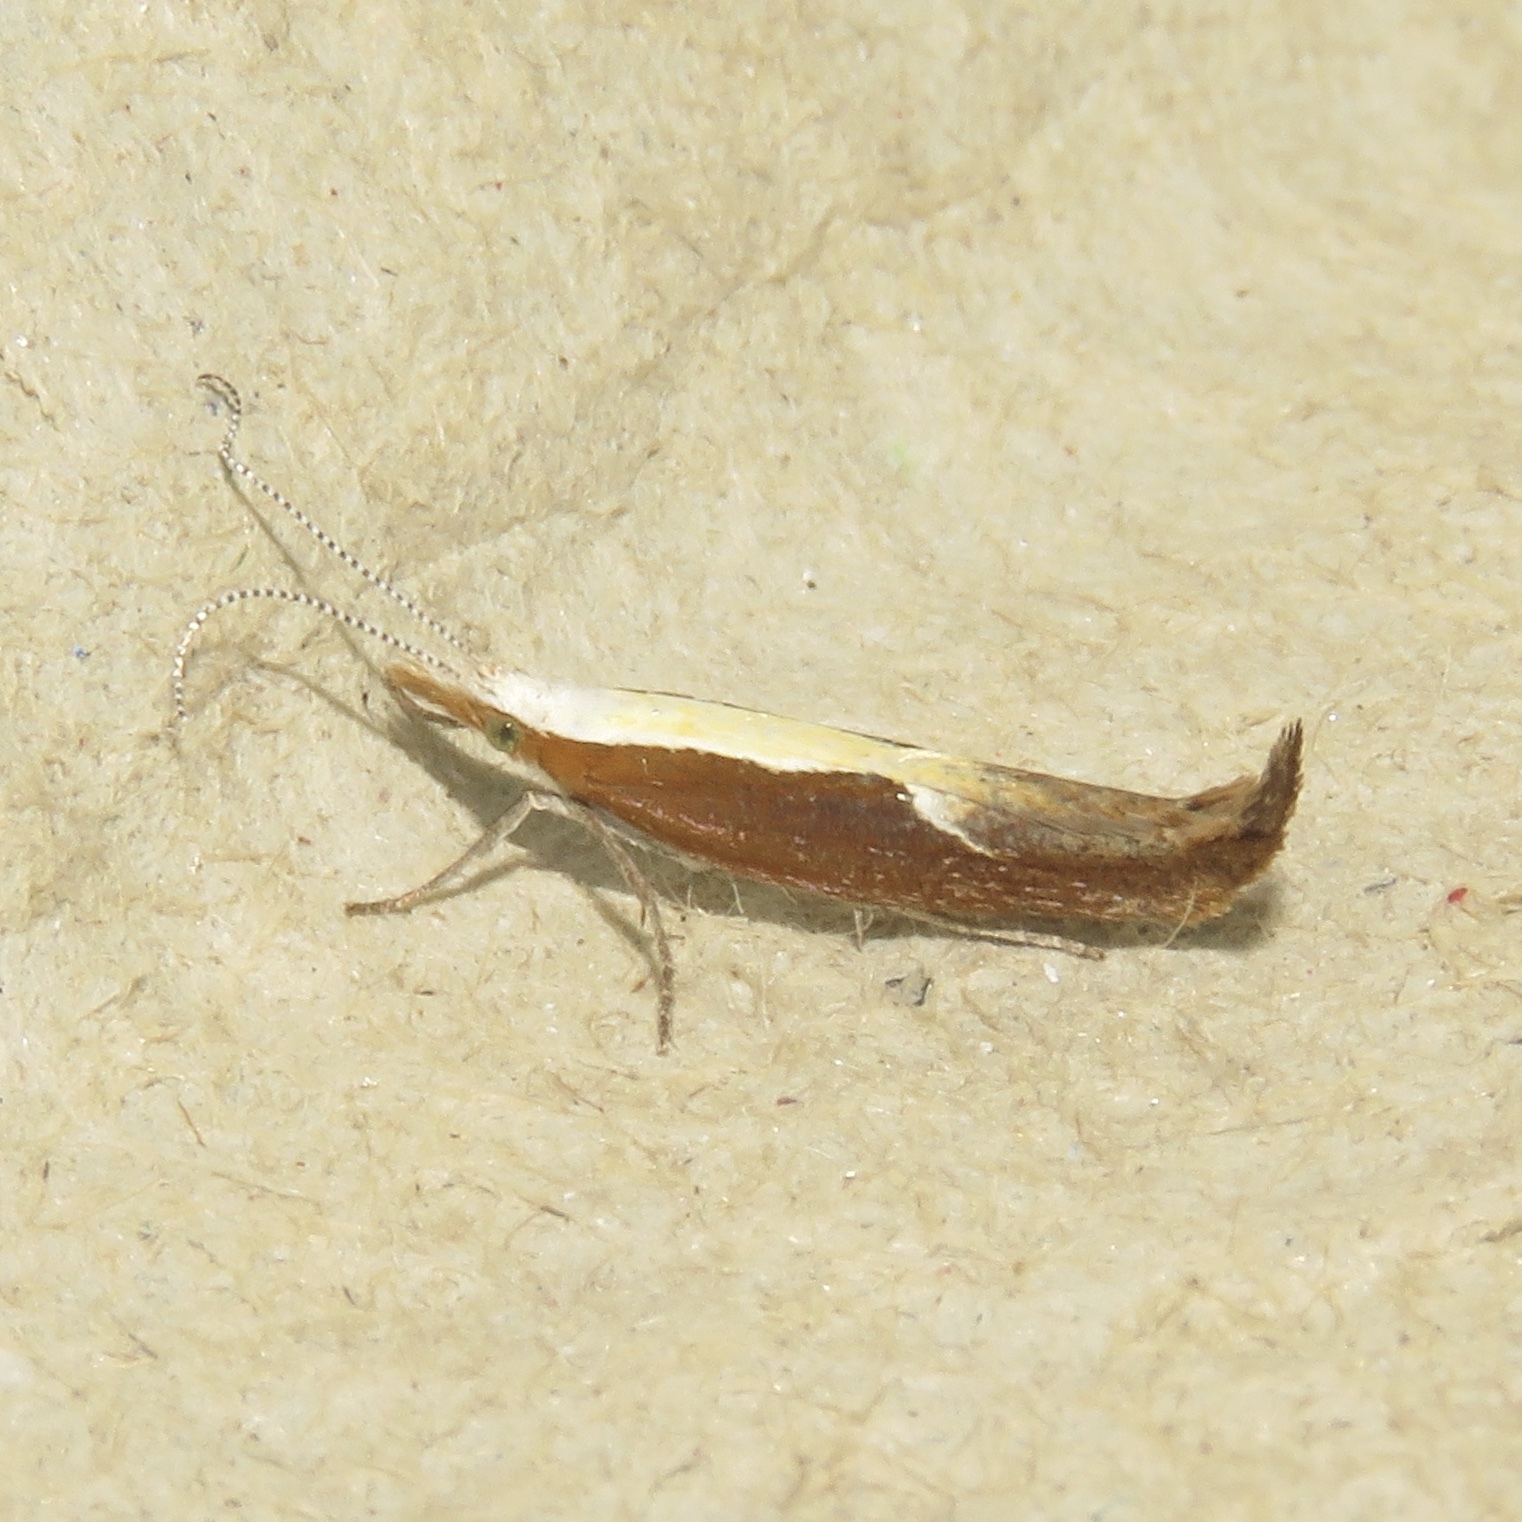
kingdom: Animalia
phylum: Arthropoda
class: Insecta
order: Lepidoptera
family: Ypsolophidae
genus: Ypsolopha
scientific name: Ypsolopha dentella
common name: Honeysuckle moth
